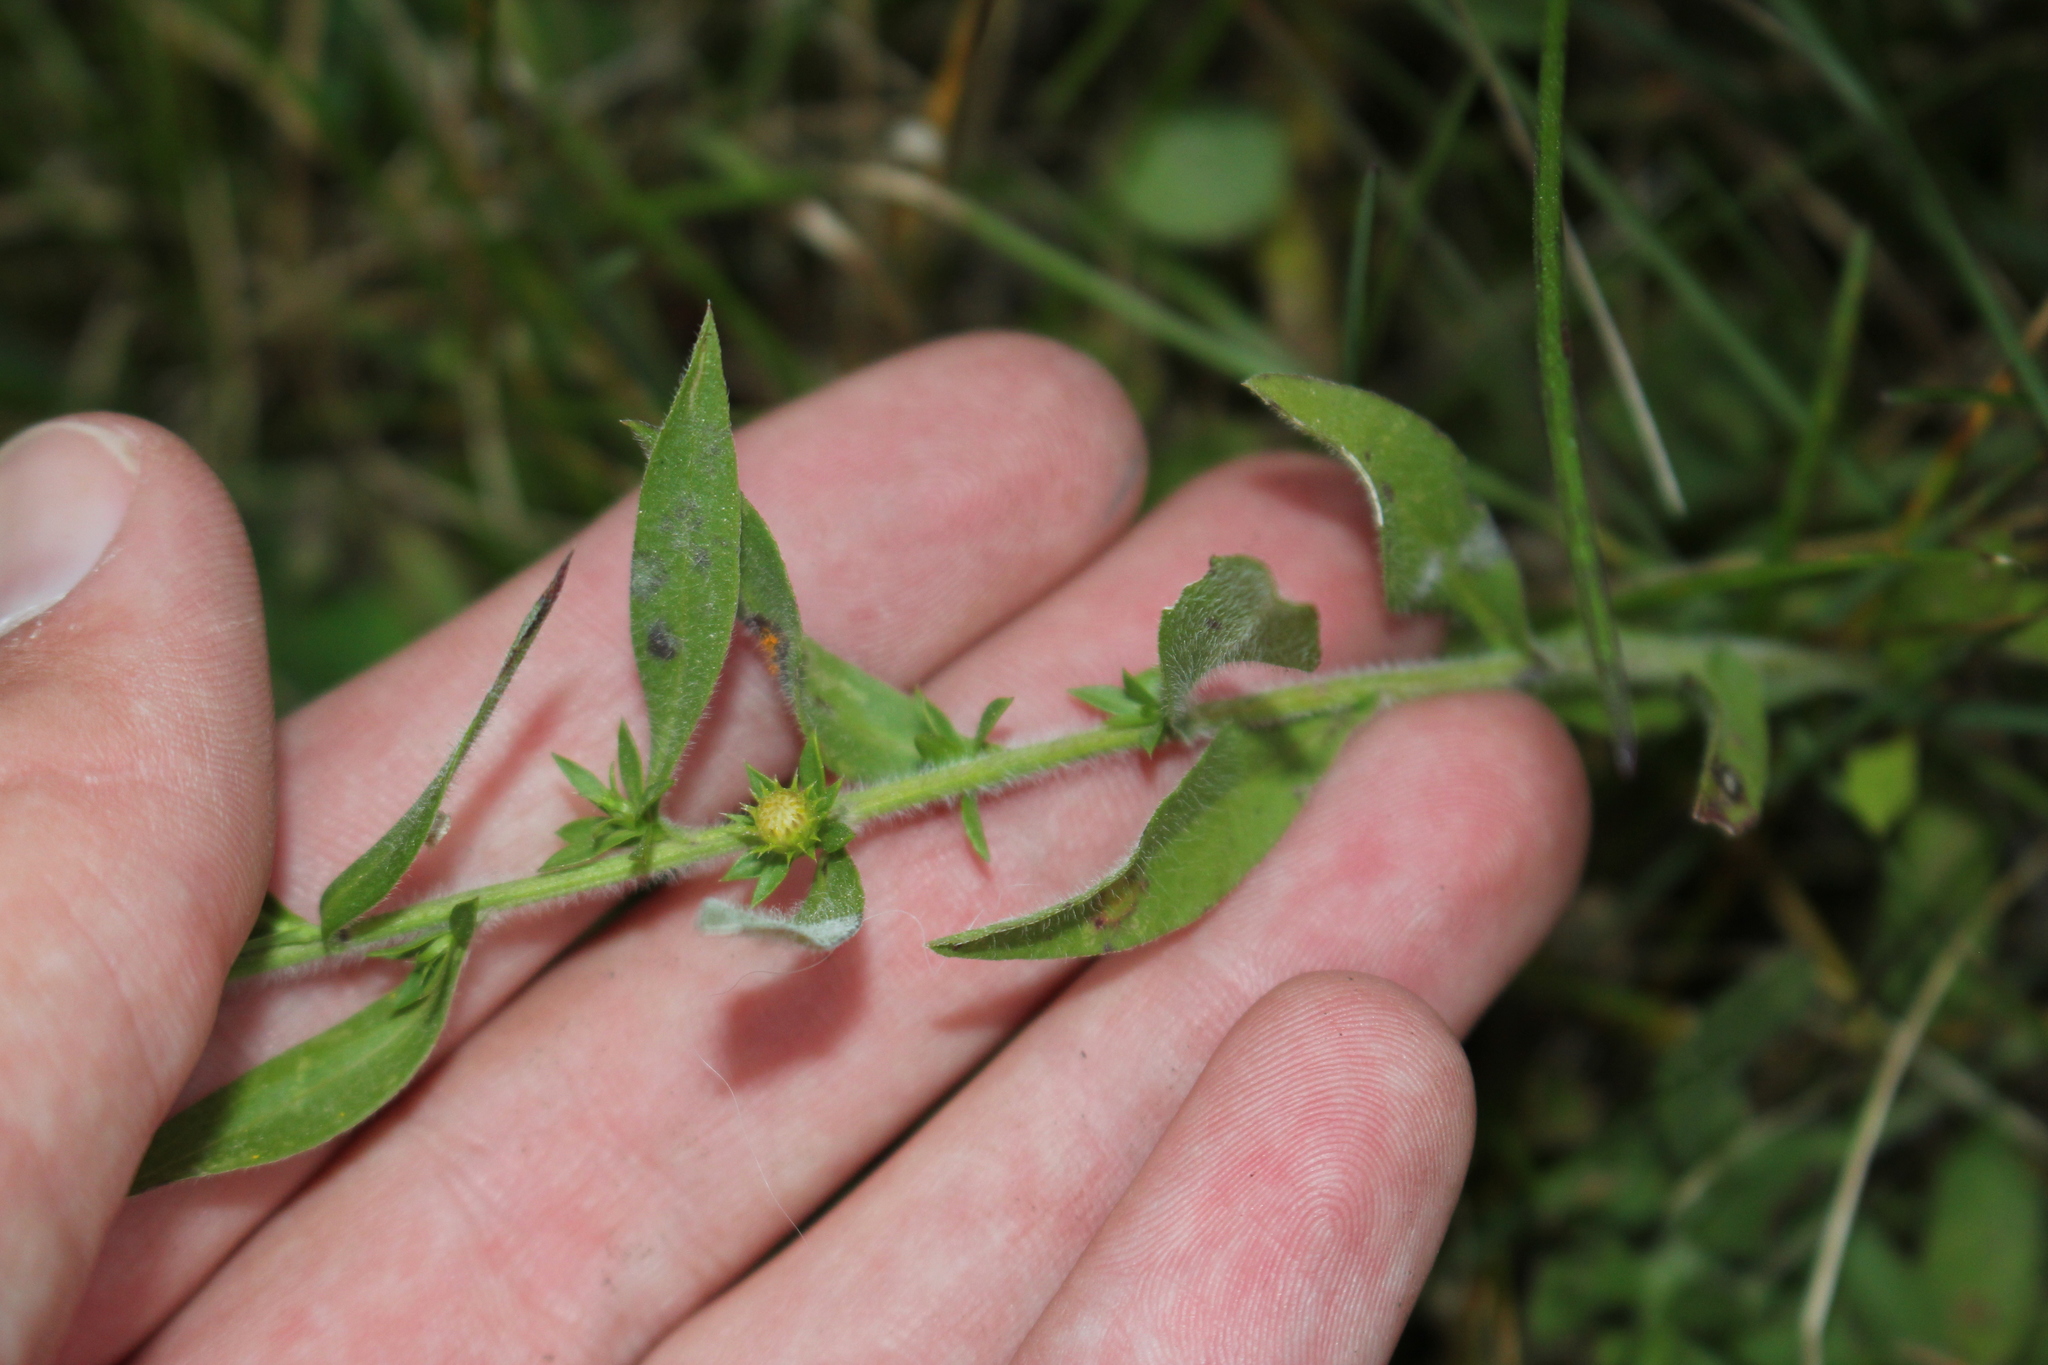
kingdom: Plantae
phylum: Tracheophyta
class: Magnoliopsida
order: Asterales
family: Asteraceae
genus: Symphyotrichum
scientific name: Symphyotrichum pilosum
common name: Awl aster
